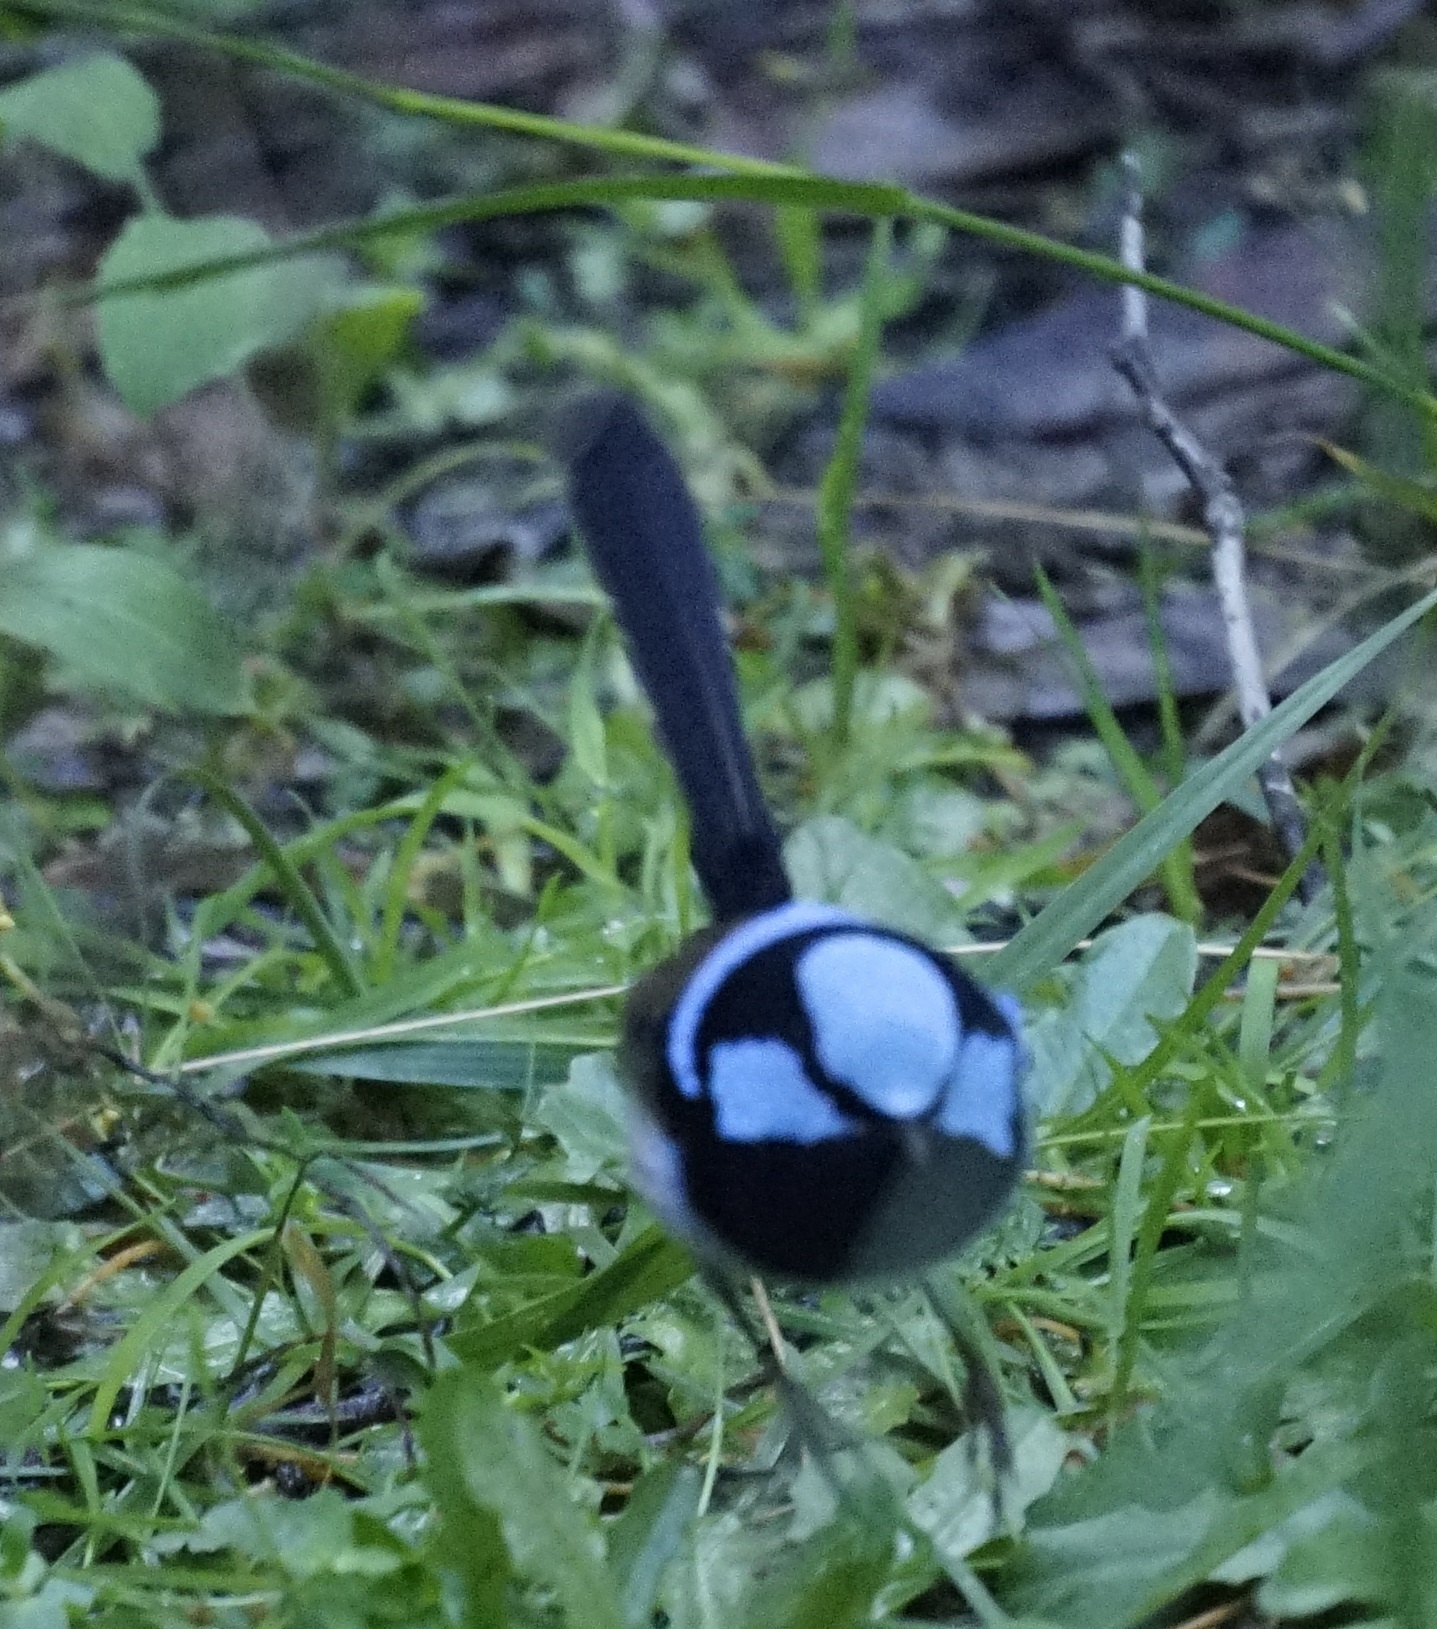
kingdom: Animalia
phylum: Chordata
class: Aves
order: Passeriformes
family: Maluridae
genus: Malurus
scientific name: Malurus cyaneus
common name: Superb fairywren
